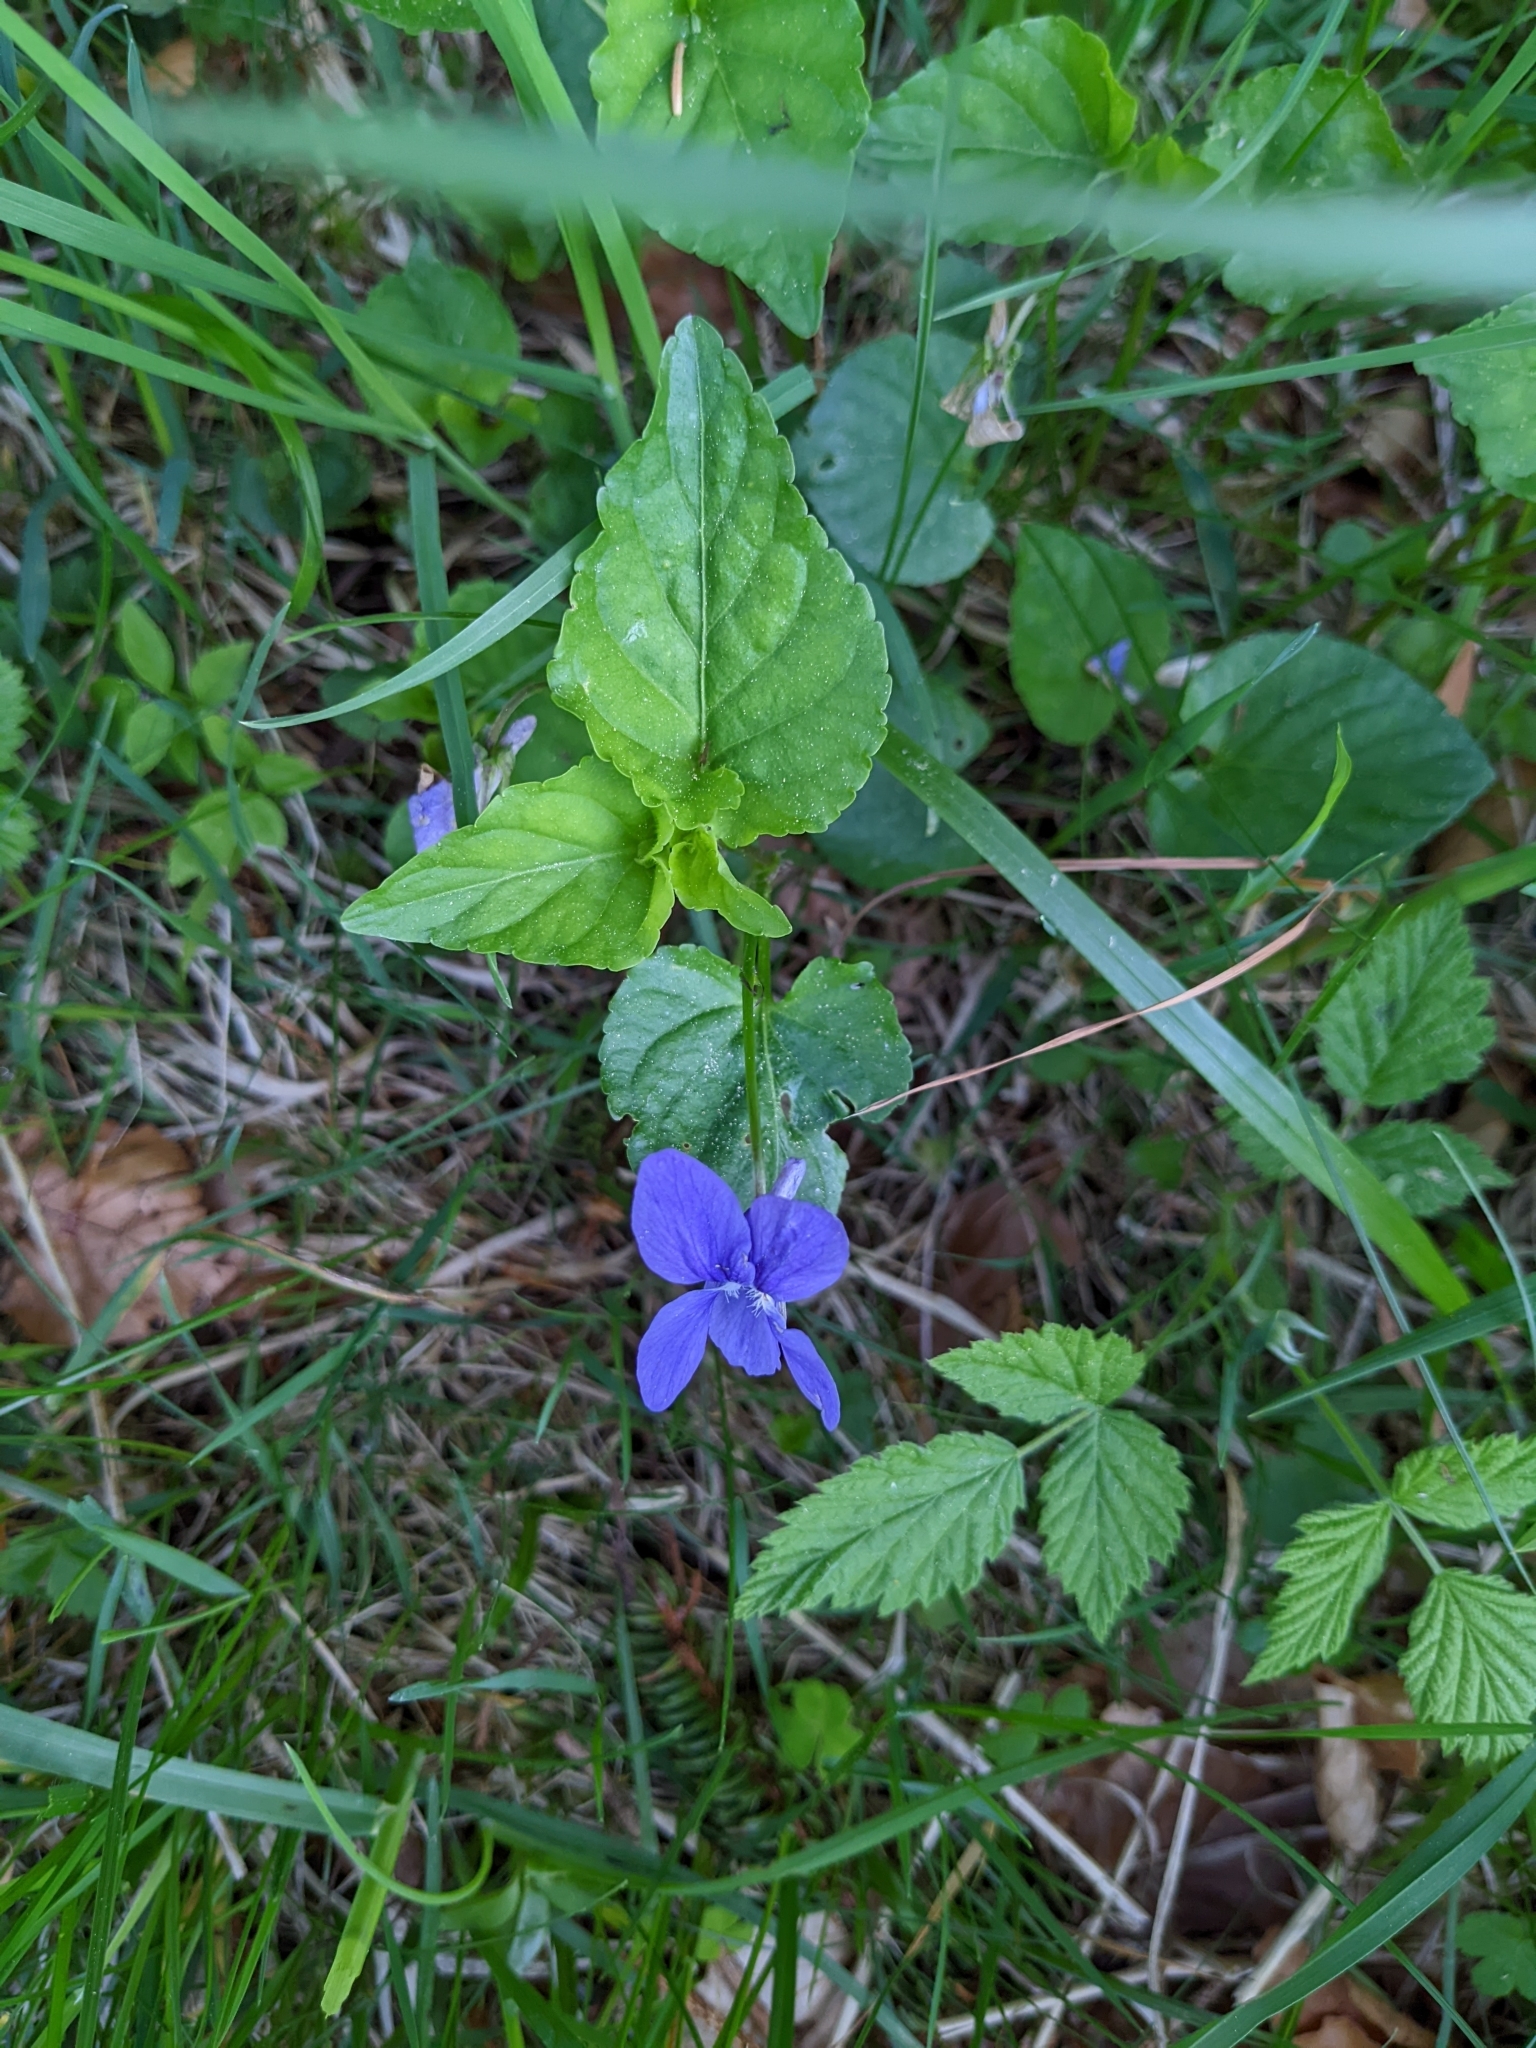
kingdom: Plantae
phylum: Tracheophyta
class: Magnoliopsida
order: Malpighiales
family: Violaceae
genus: Viola
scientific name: Viola reichenbachiana
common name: Early dog-violet
